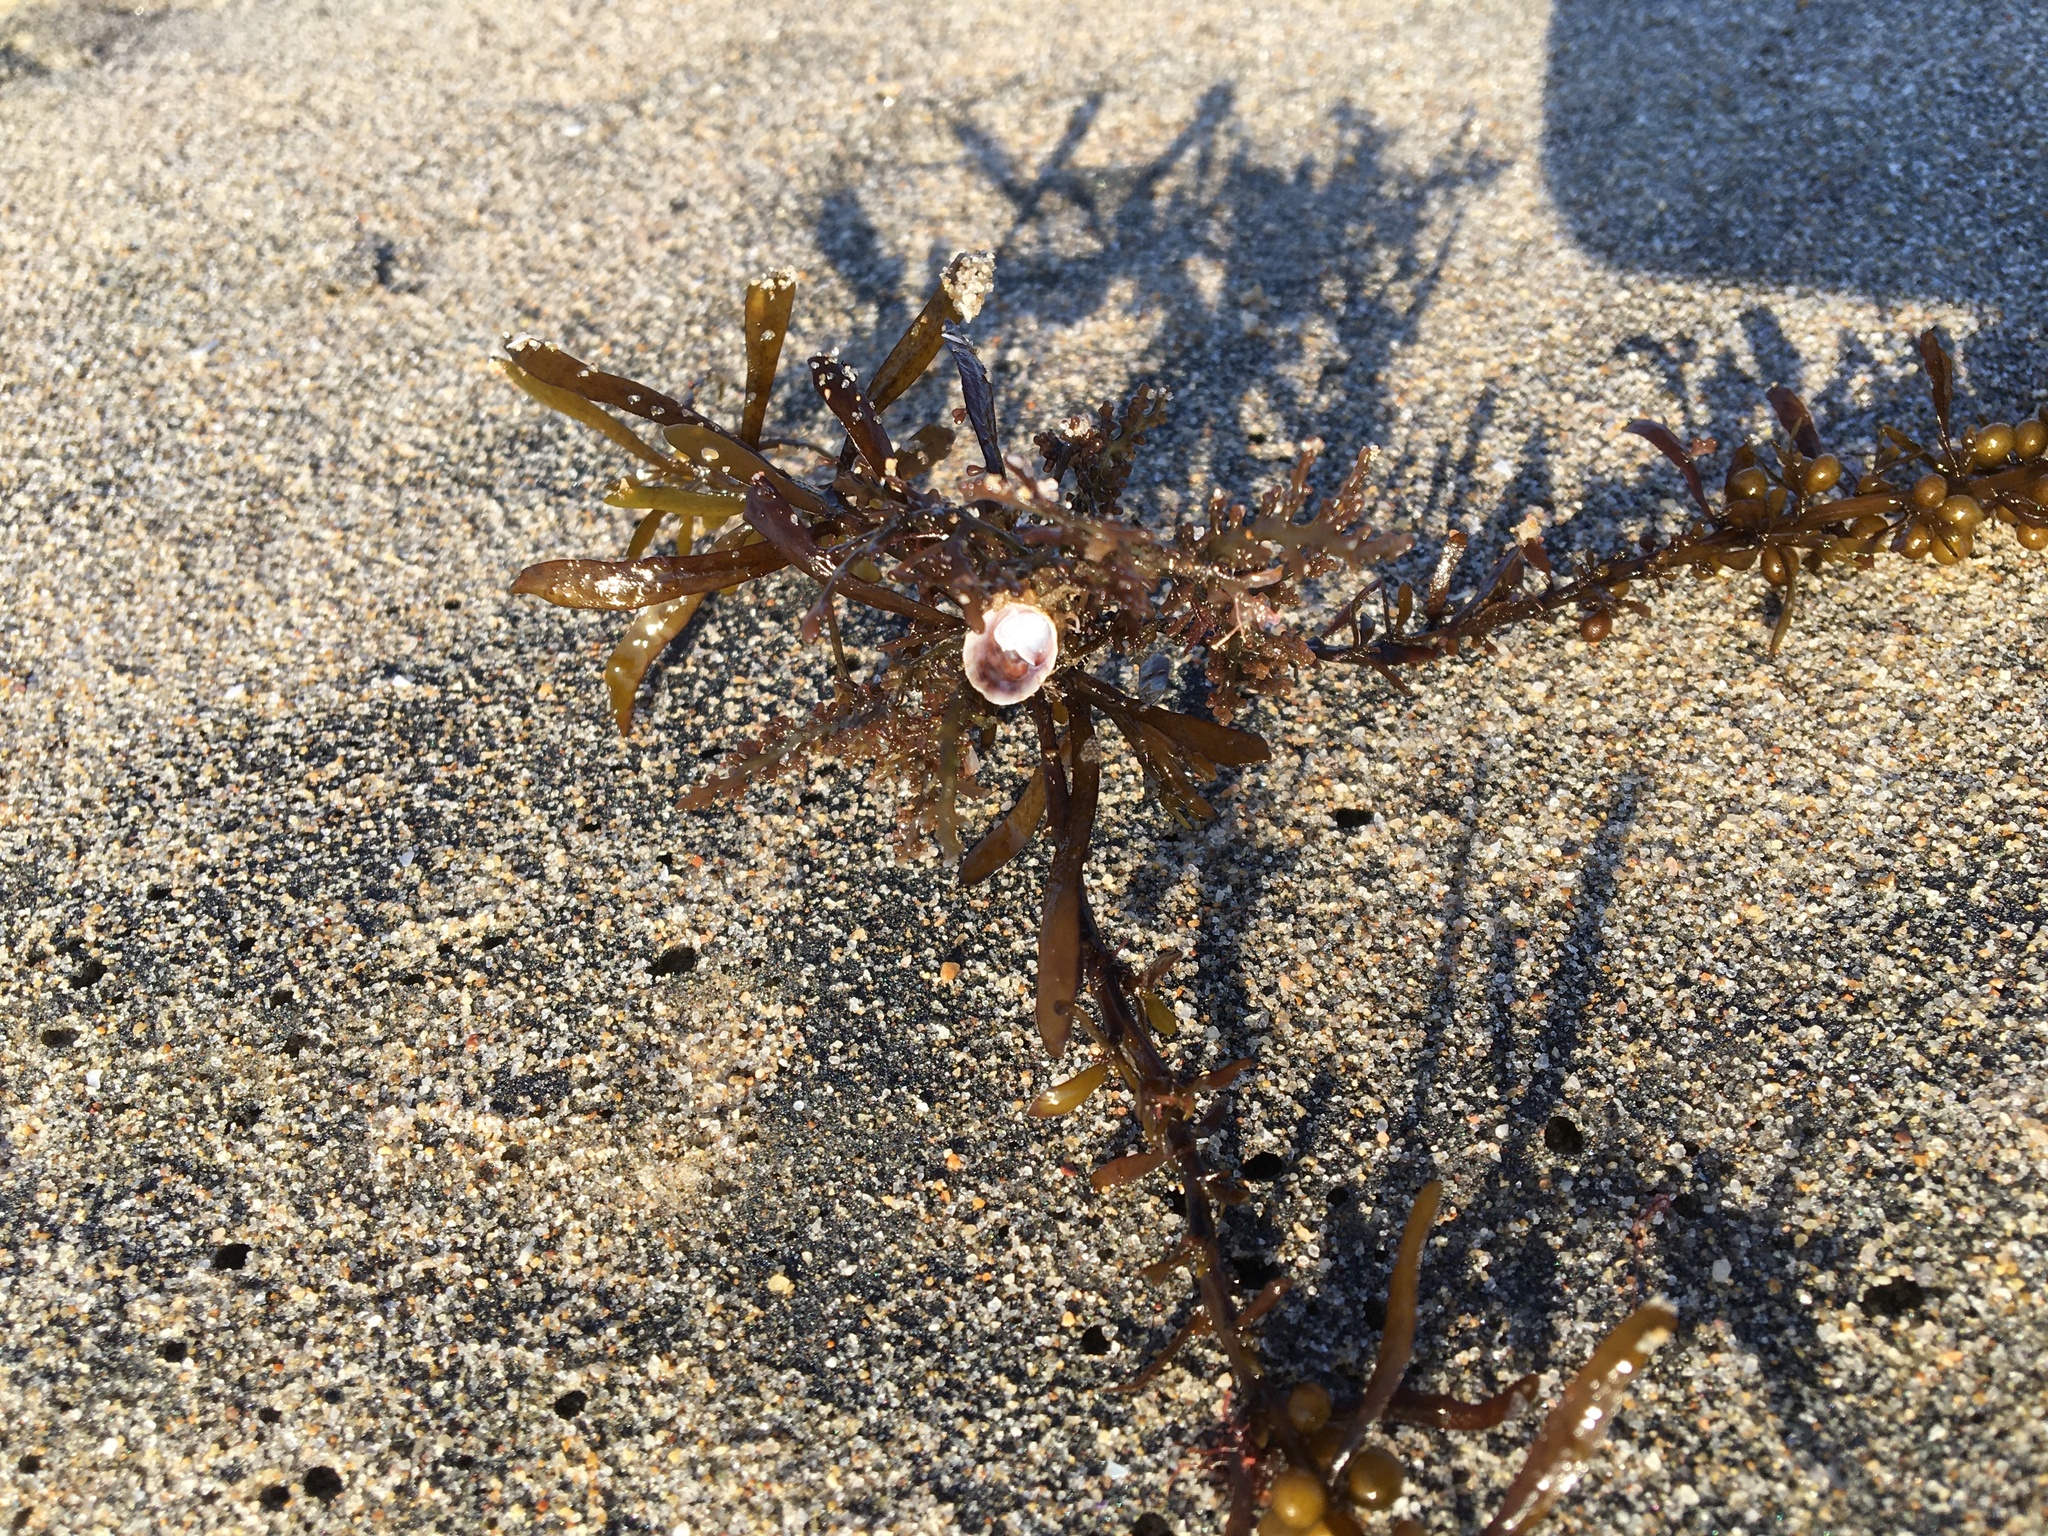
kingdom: Chromista
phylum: Ochrophyta
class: Phaeophyceae
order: Fucales
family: Sargassaceae
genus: Sargassum
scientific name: Sargassum muticum
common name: Japweed
